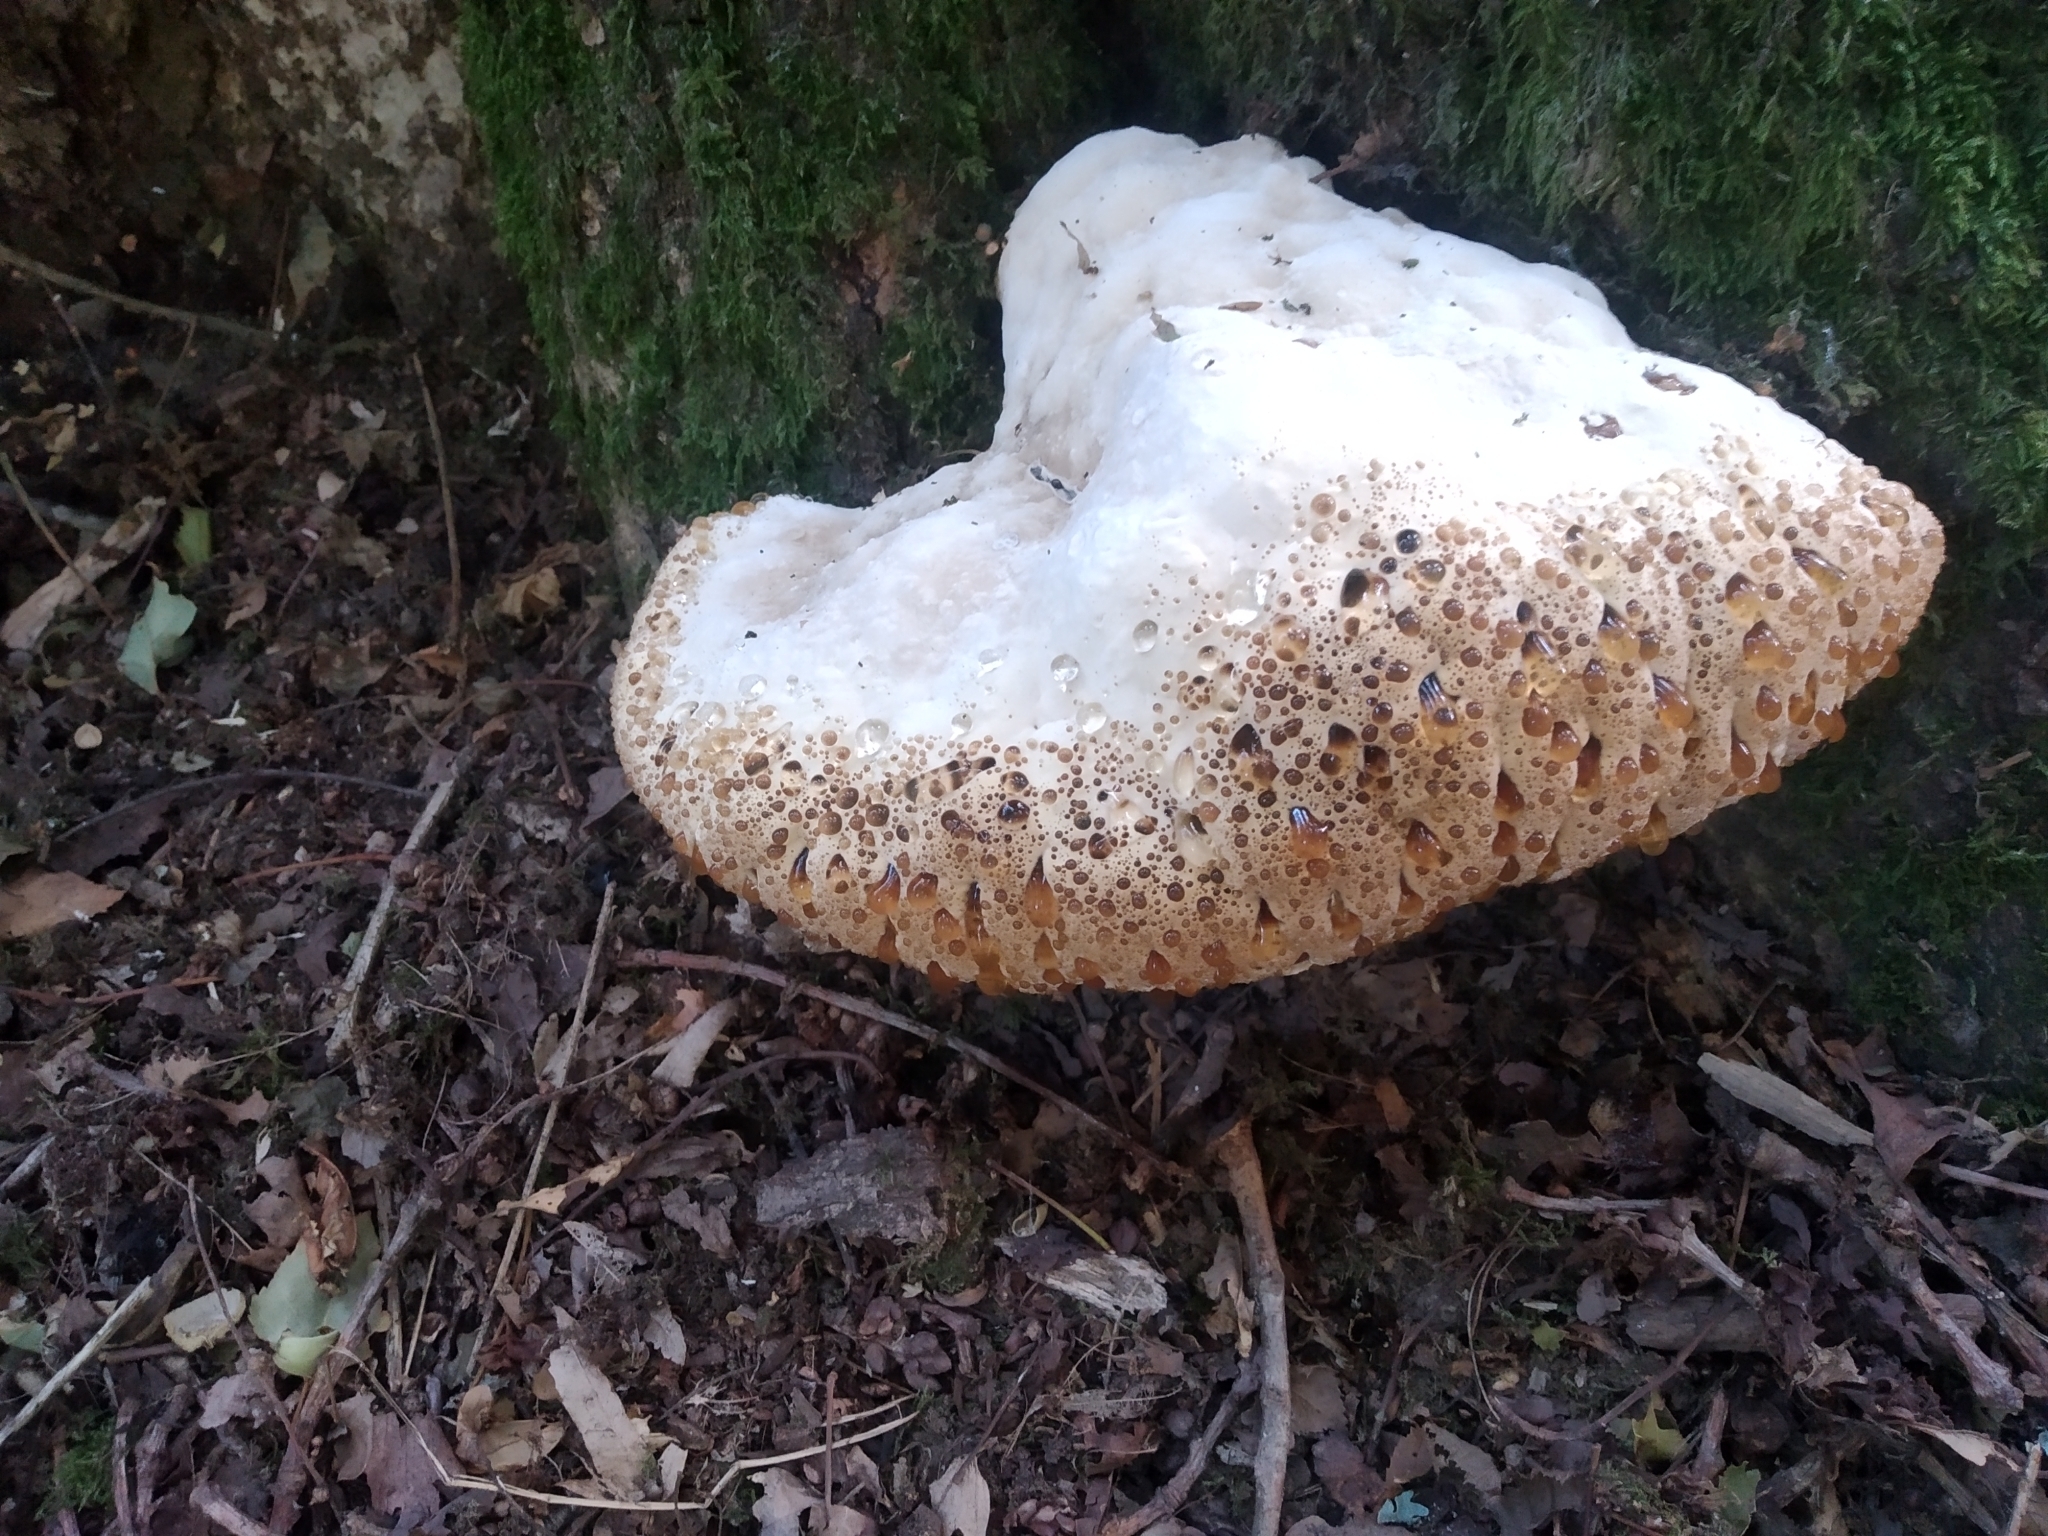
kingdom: Fungi
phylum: Basidiomycota
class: Agaricomycetes
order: Hymenochaetales
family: Hymenochaetaceae
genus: Pseudoinonotus
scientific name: Pseudoinonotus dryadeus
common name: Oak bracket
